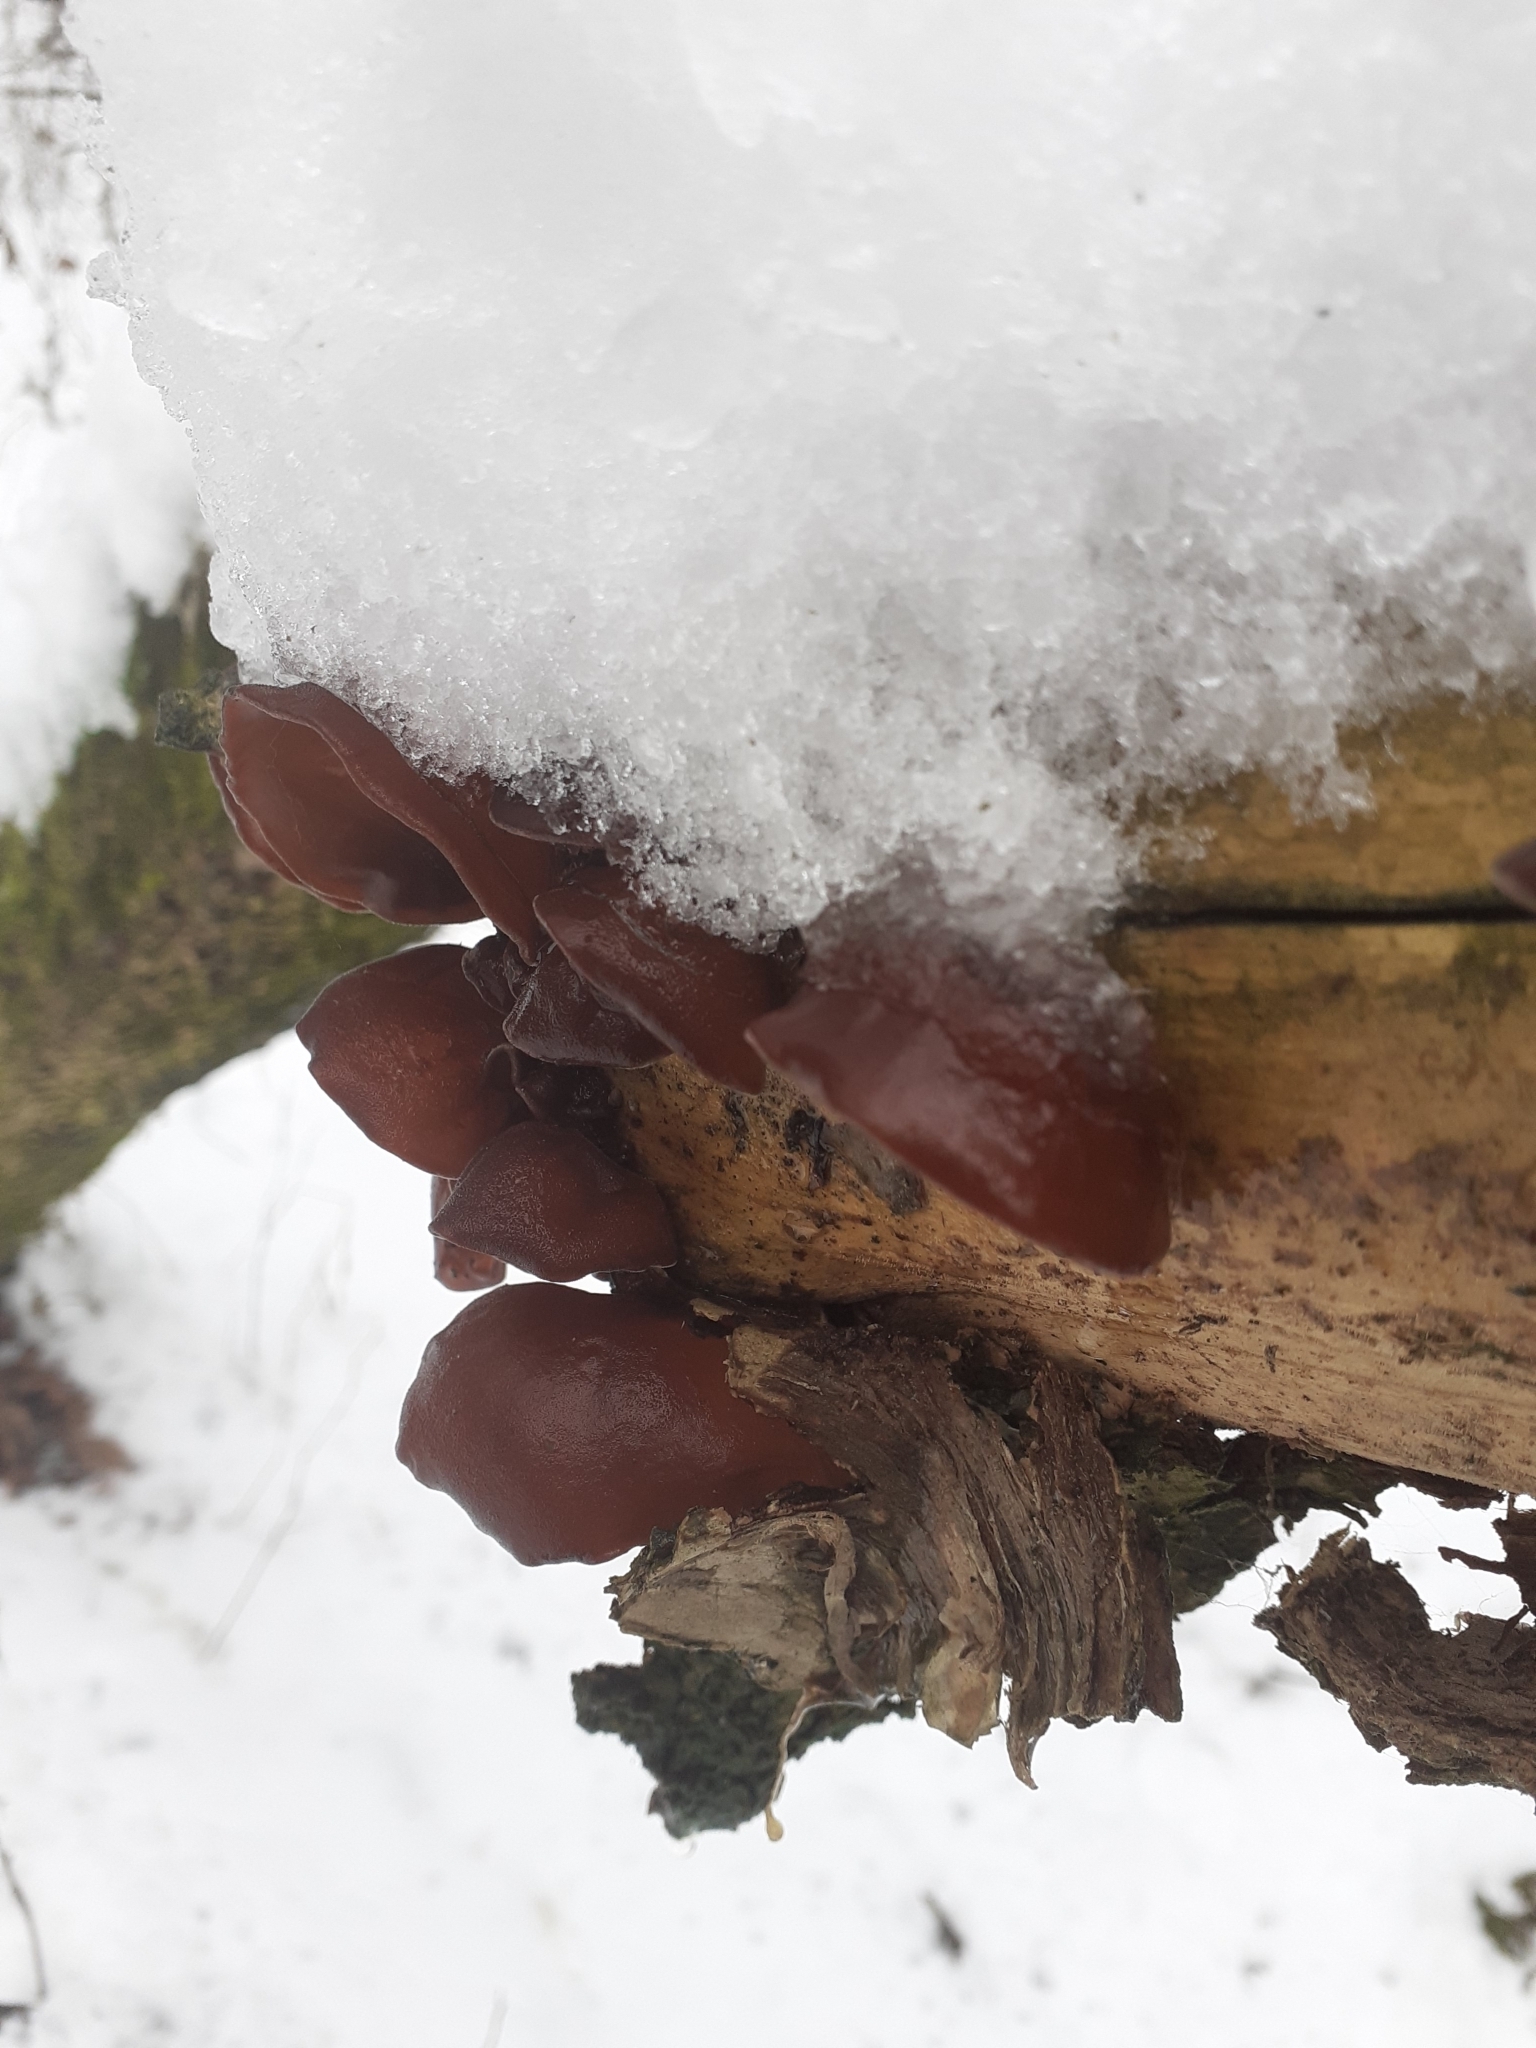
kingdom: Fungi
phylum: Basidiomycota
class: Agaricomycetes
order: Auriculariales
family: Auriculariaceae
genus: Auricularia
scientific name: Auricularia auricula-judae
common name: Jelly ear
